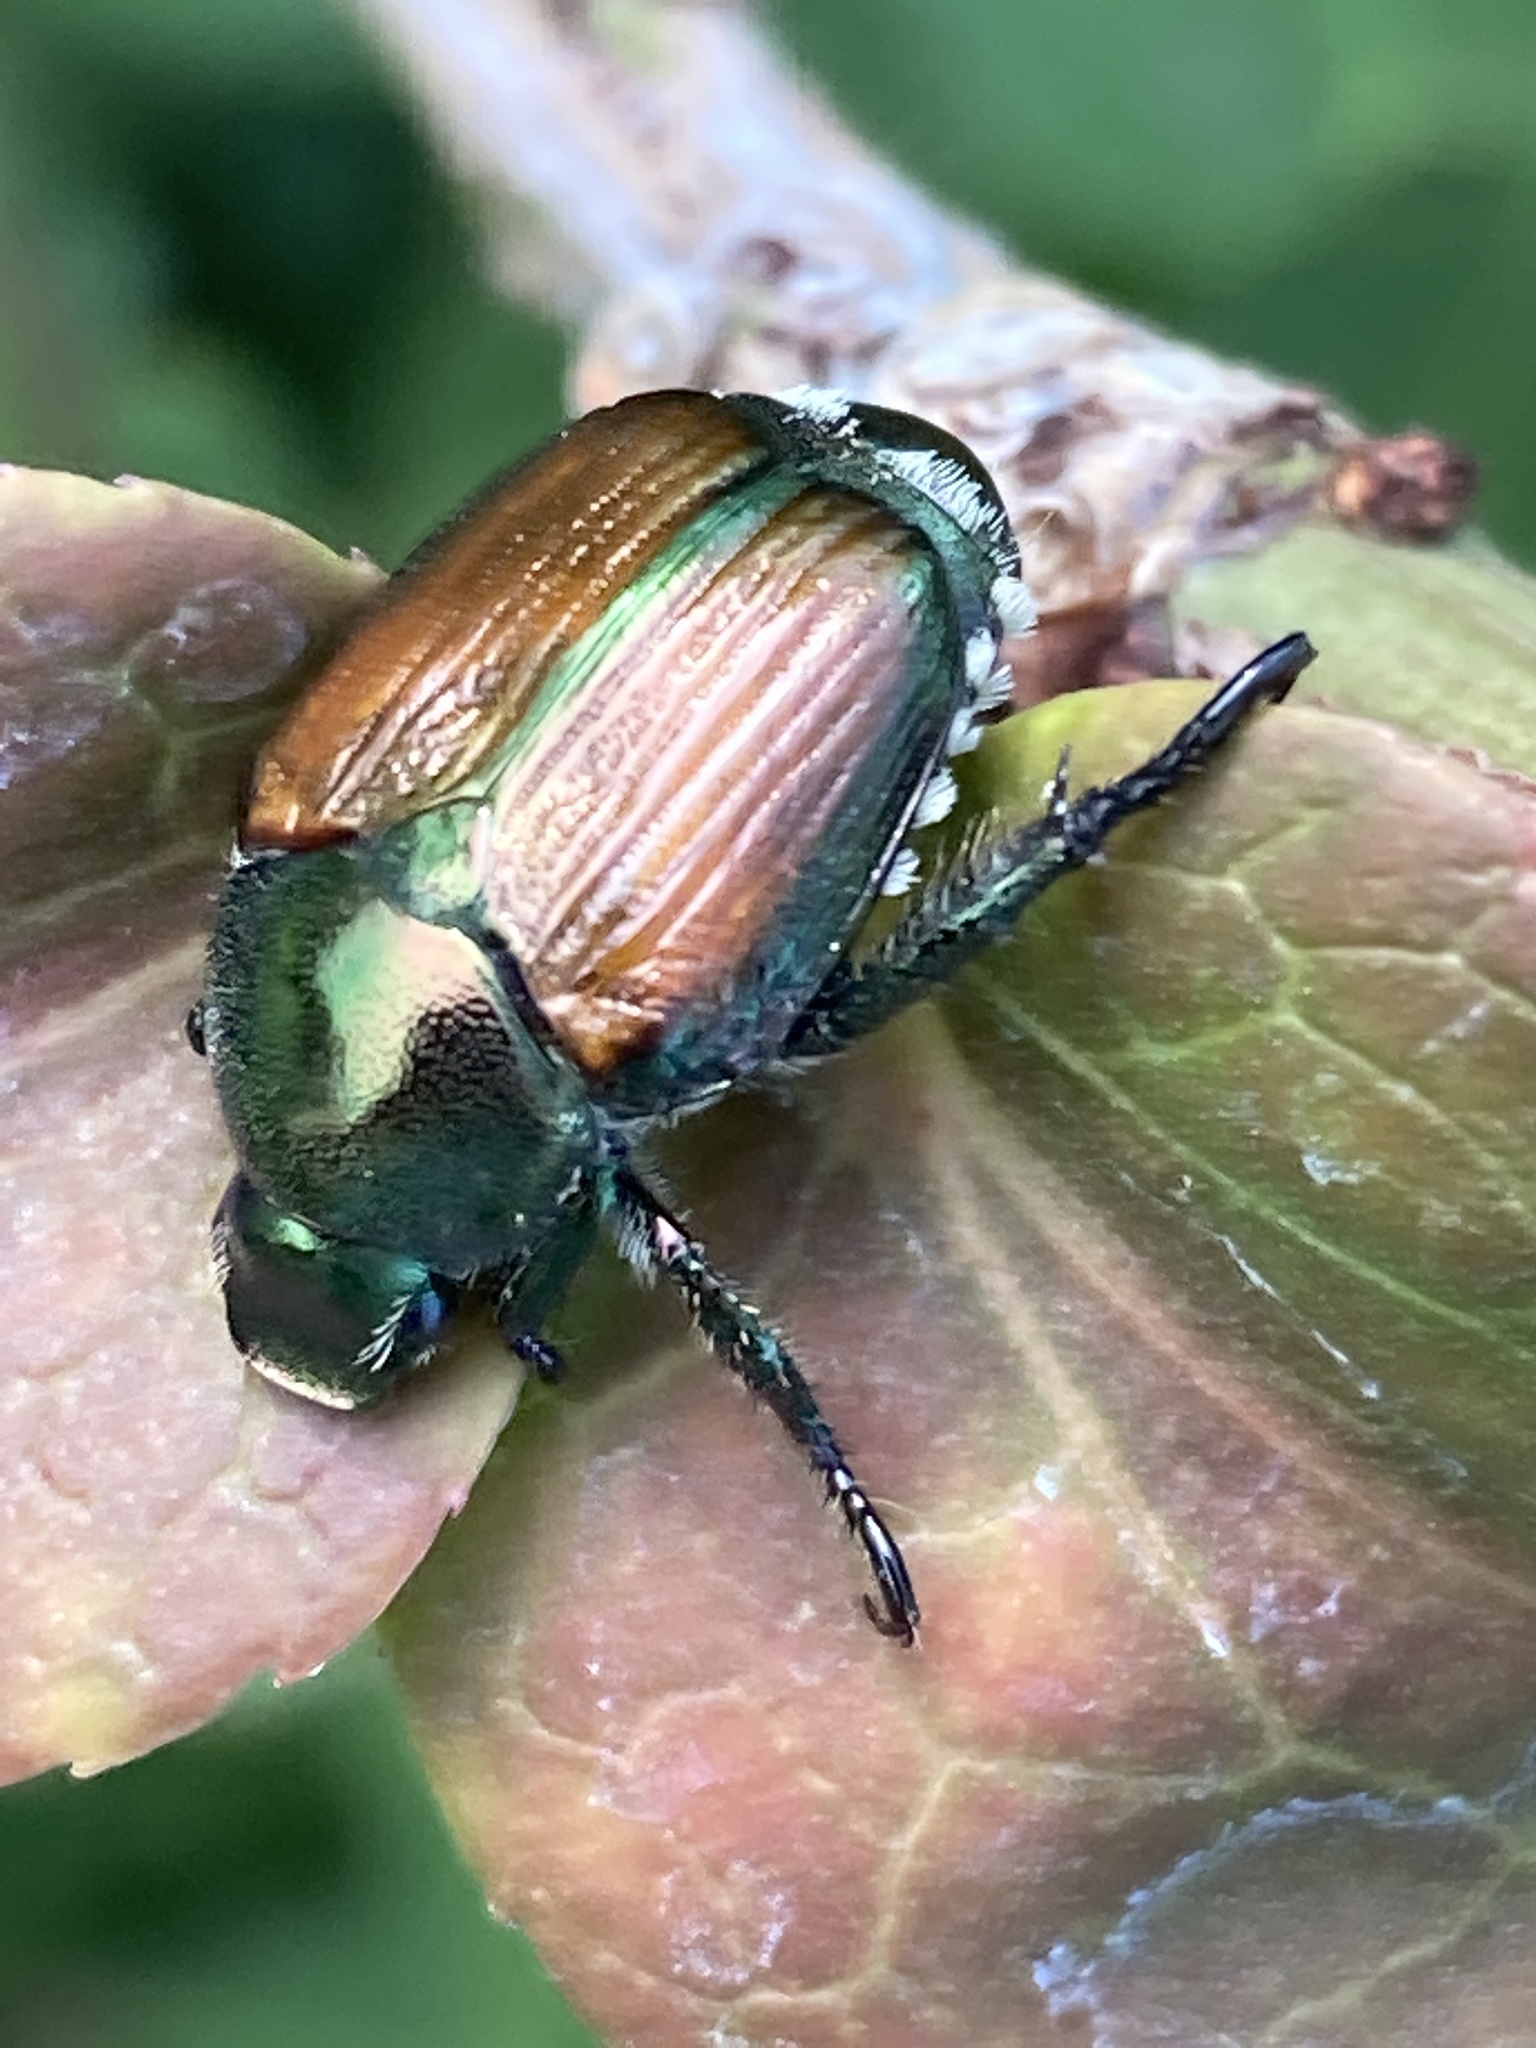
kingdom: Animalia
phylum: Arthropoda
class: Insecta
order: Coleoptera
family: Scarabaeidae
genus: Popillia
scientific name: Popillia japonica
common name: Japanese beetle
